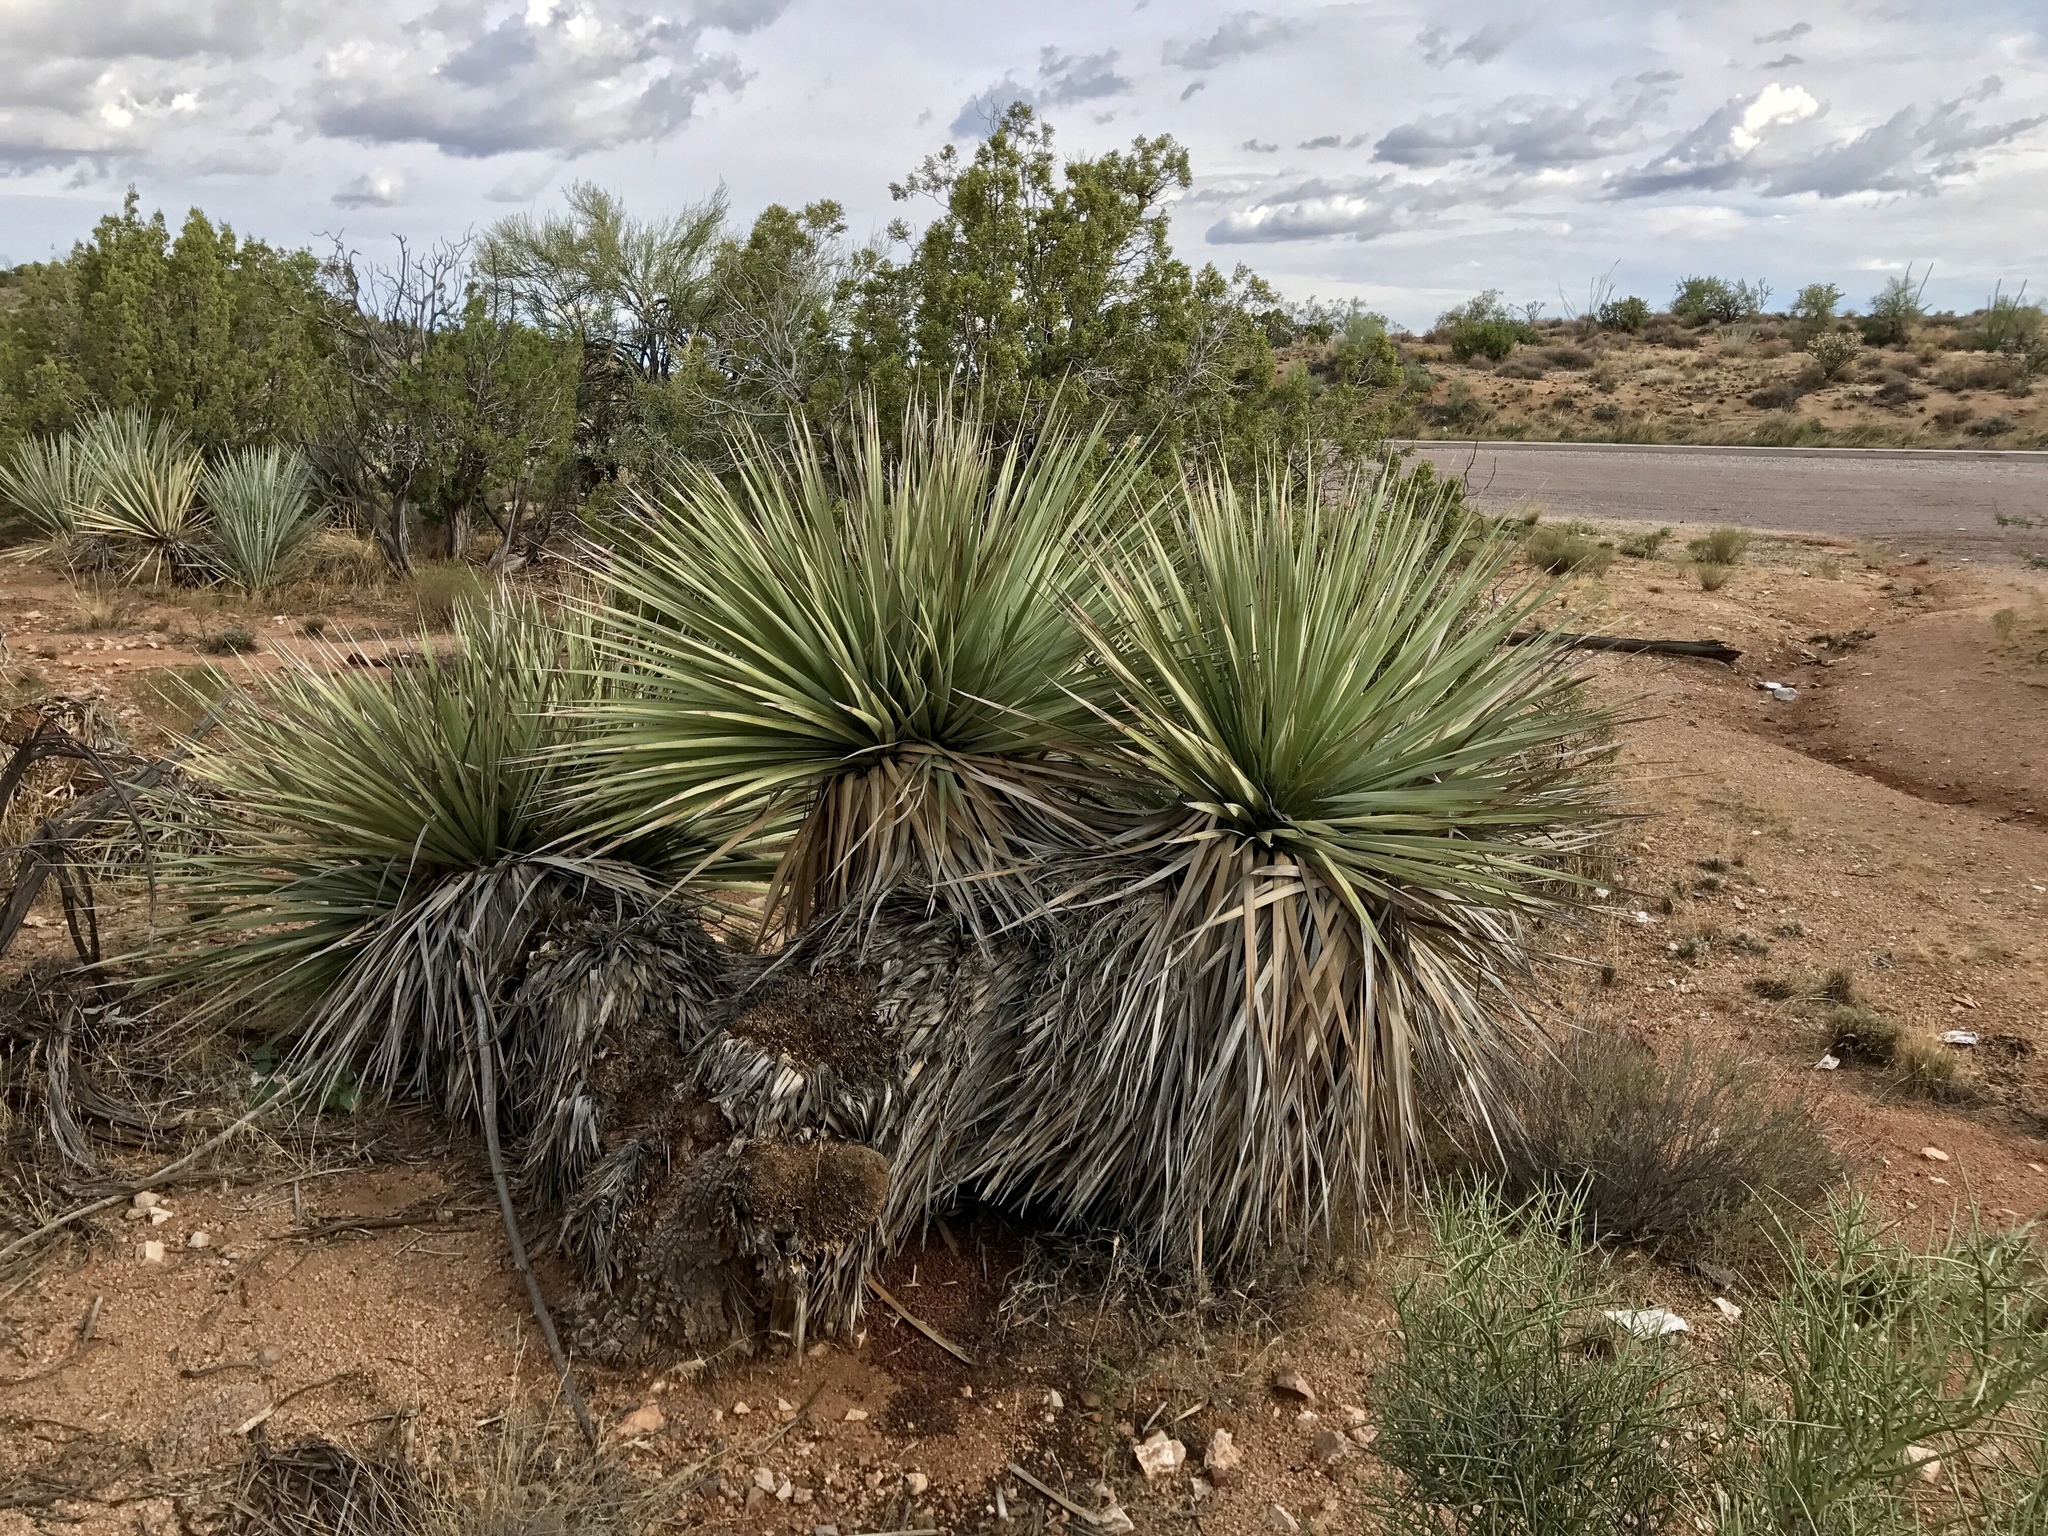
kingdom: Plantae
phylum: Tracheophyta
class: Liliopsida
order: Asparagales
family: Asparagaceae
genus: Nolina
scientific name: Nolina bigelovii
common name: Bigelow bear-grass
